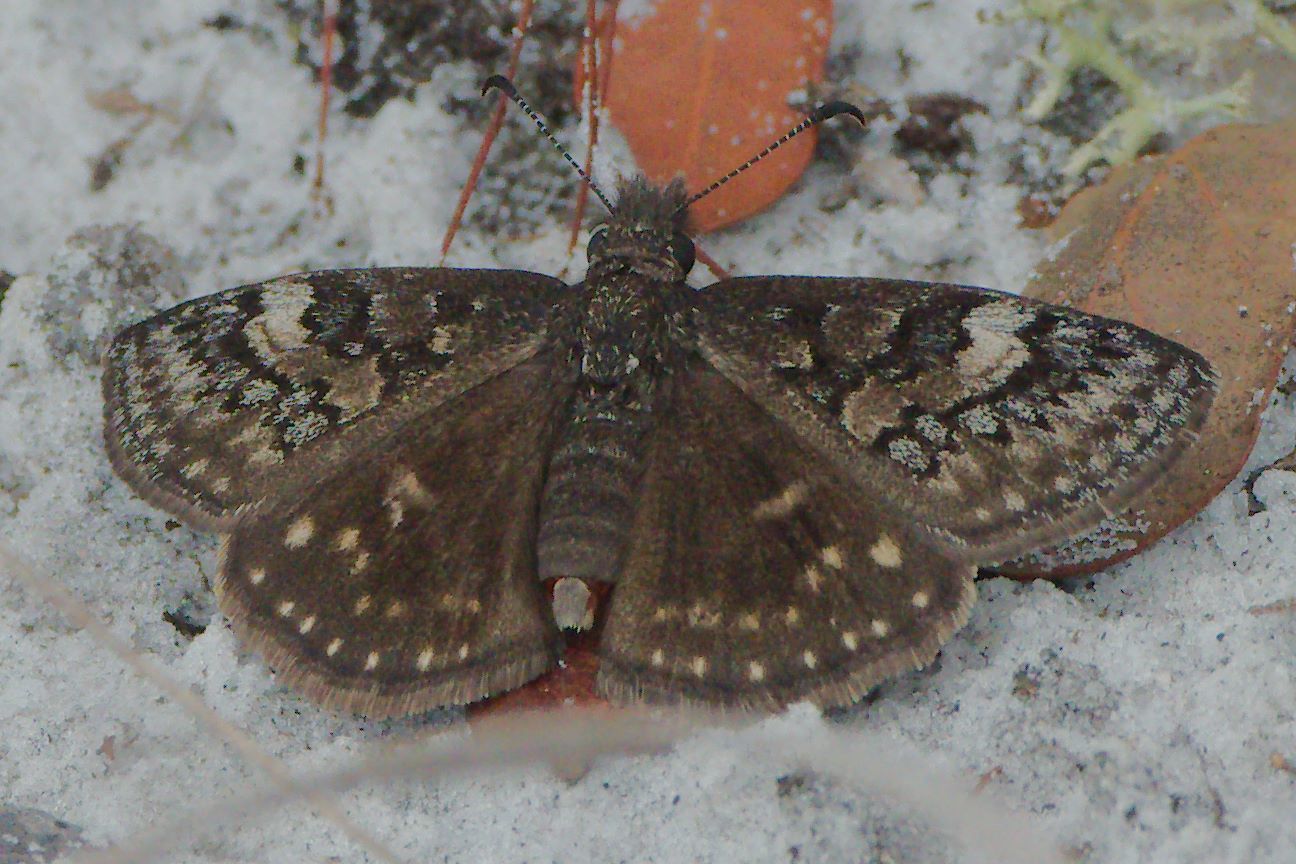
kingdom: Animalia
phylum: Arthropoda
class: Insecta
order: Lepidoptera
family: Hesperiidae
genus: Erynnis
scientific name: Erynnis brizo
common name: Sleepy duskywing
